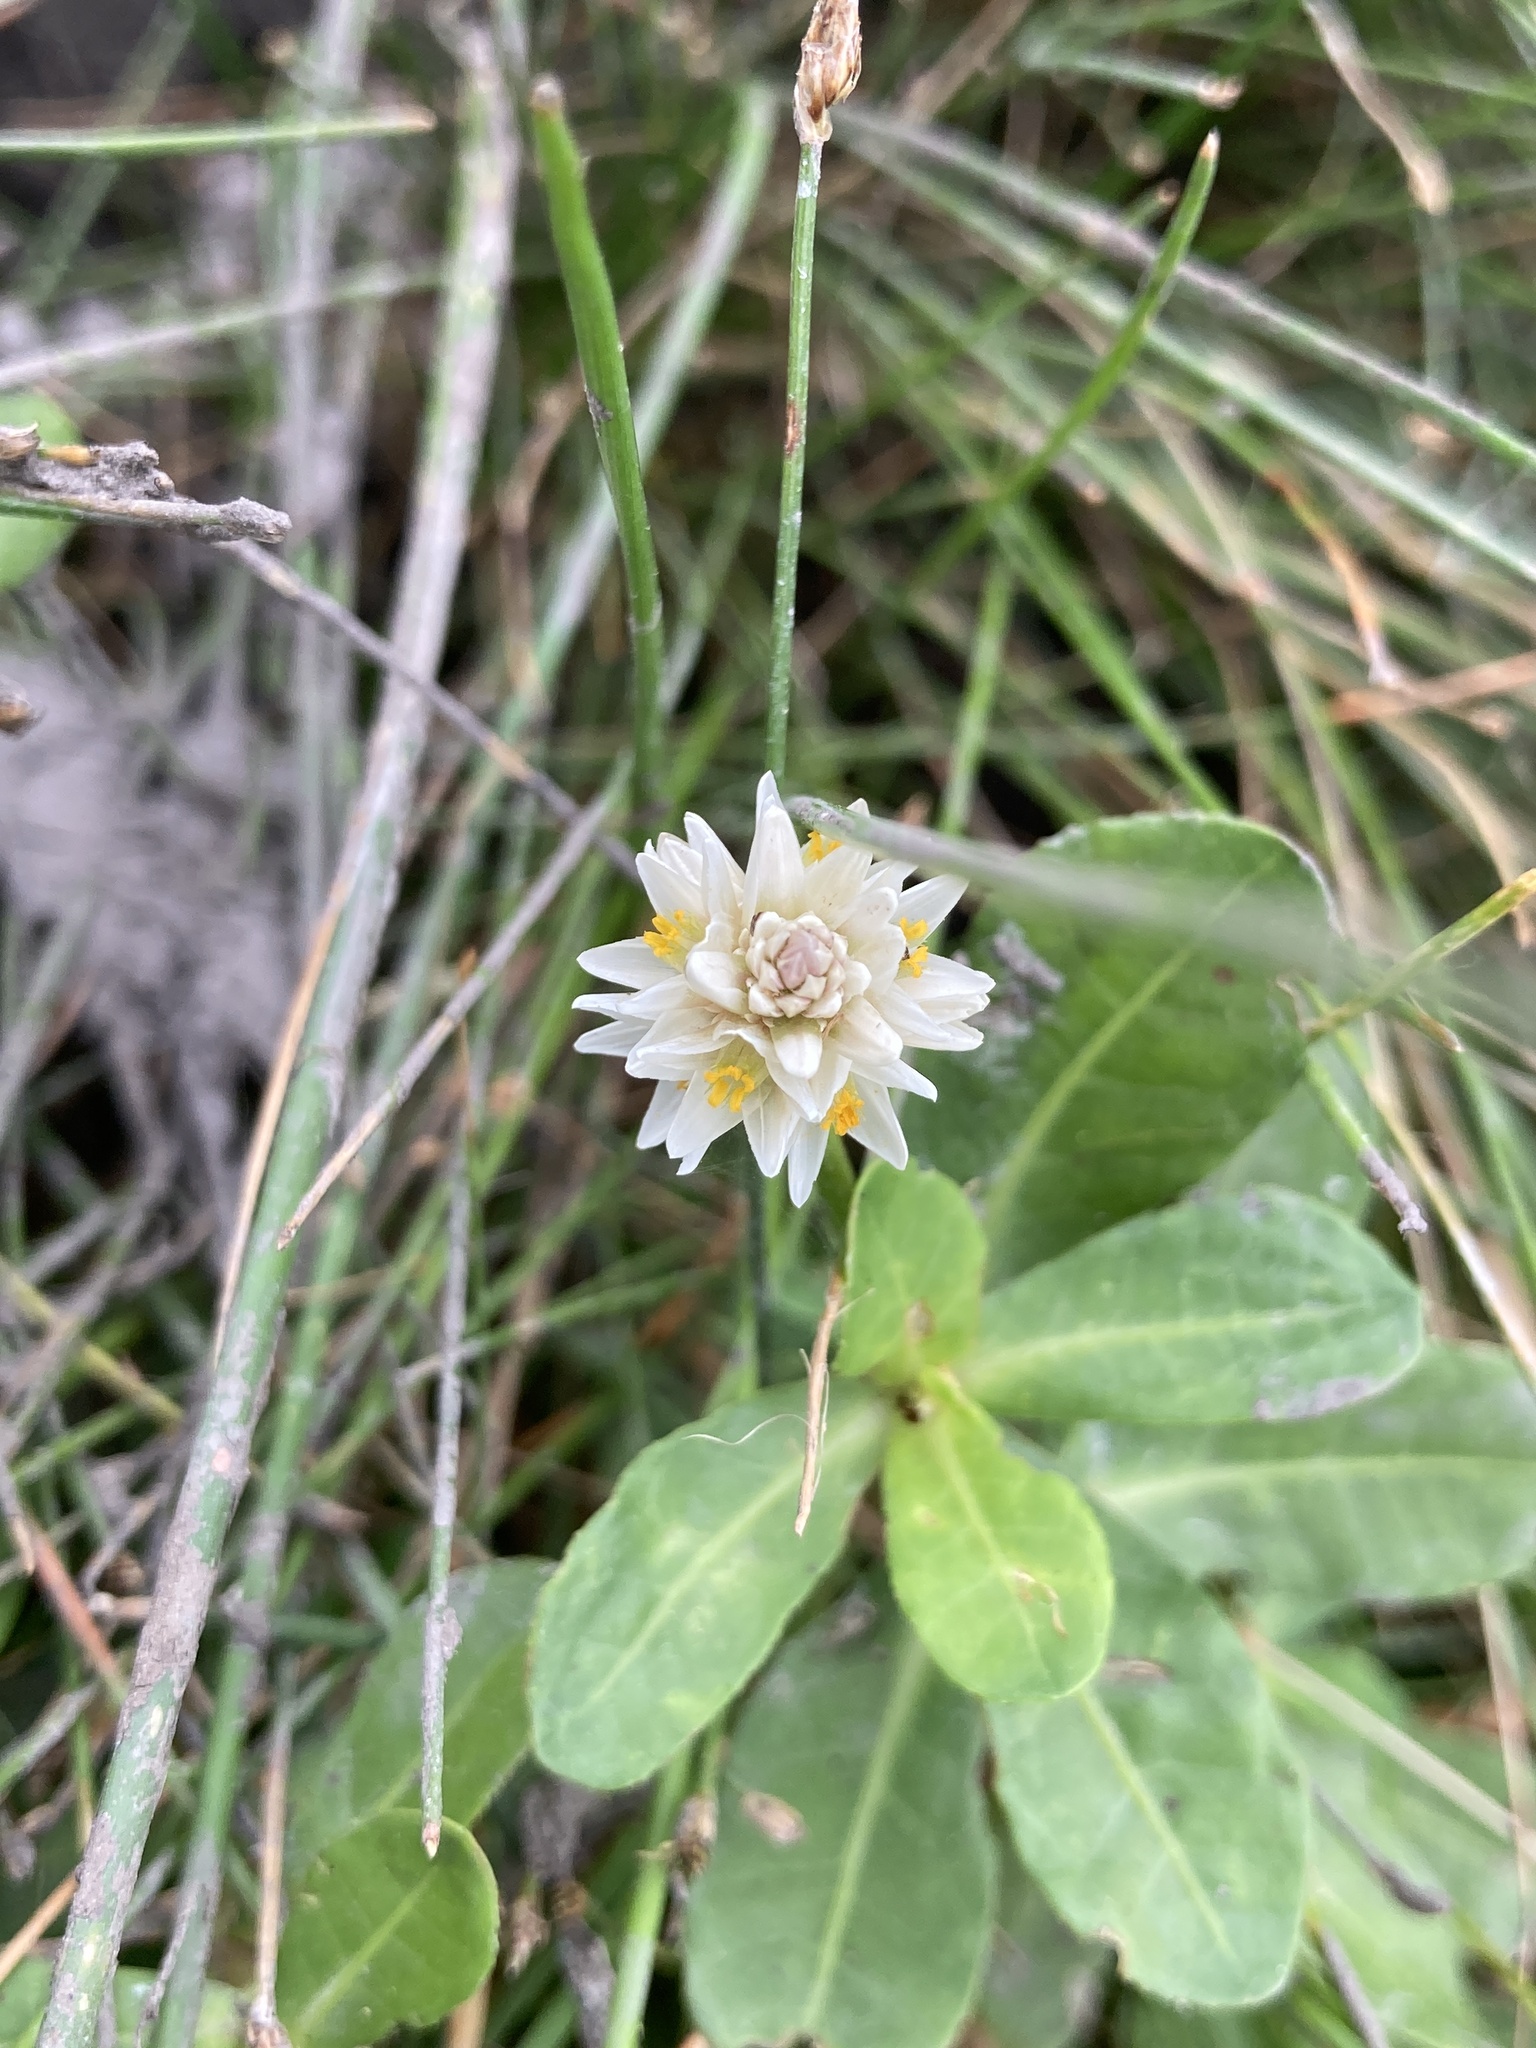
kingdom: Plantae
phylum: Tracheophyta
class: Magnoliopsida
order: Caryophyllales
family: Amaranthaceae
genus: Alternanthera
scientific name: Alternanthera philoxeroides
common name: Alligatorweed
